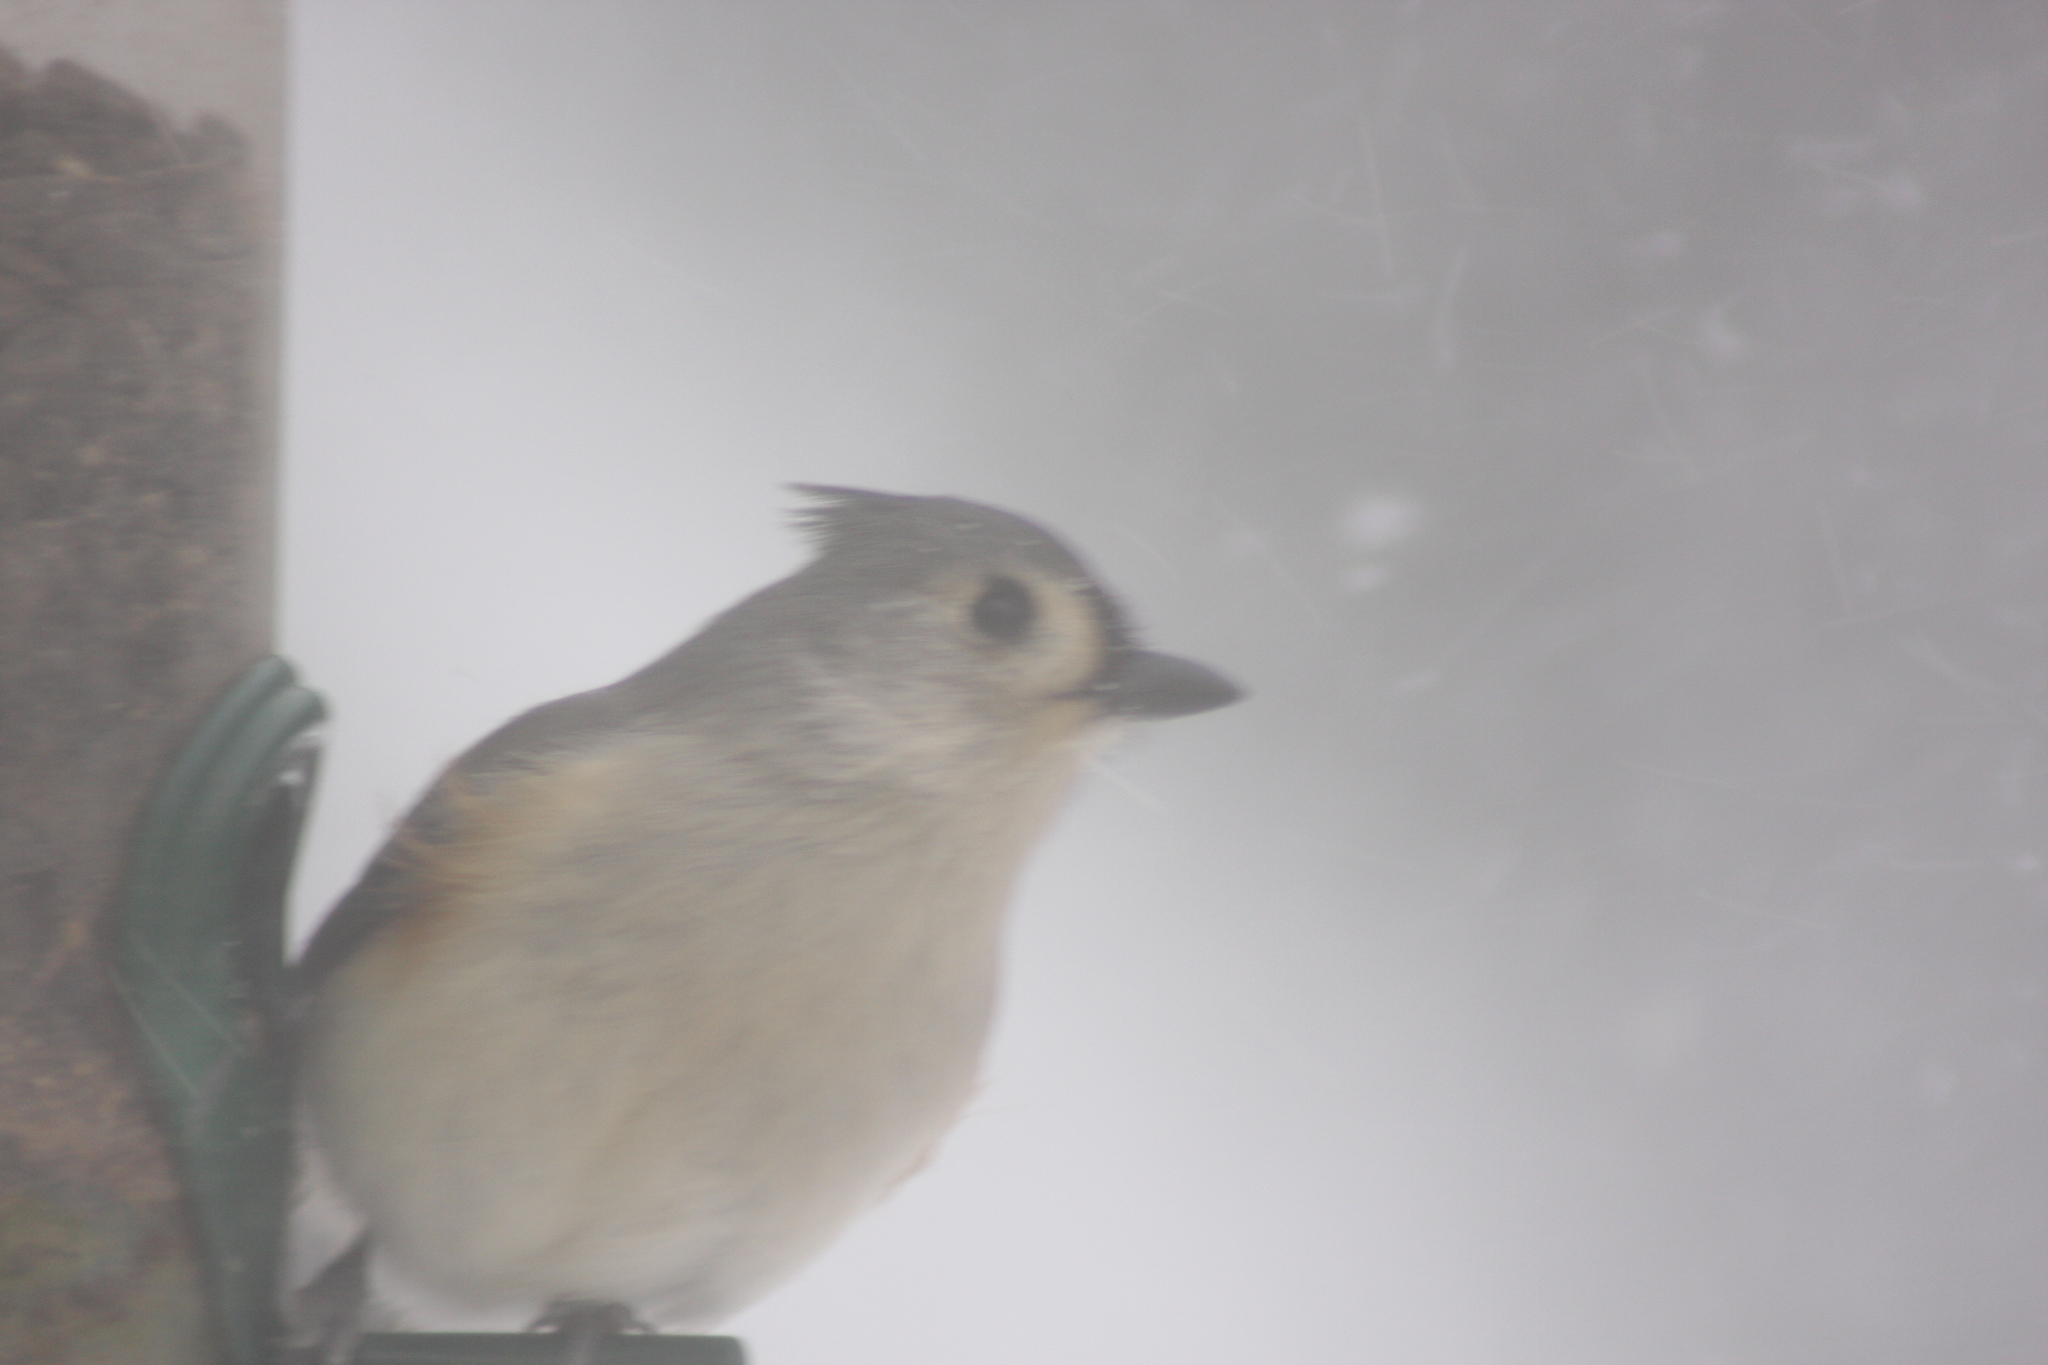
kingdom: Animalia
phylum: Chordata
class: Aves
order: Passeriformes
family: Paridae
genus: Baeolophus
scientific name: Baeolophus bicolor
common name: Tufted titmouse
